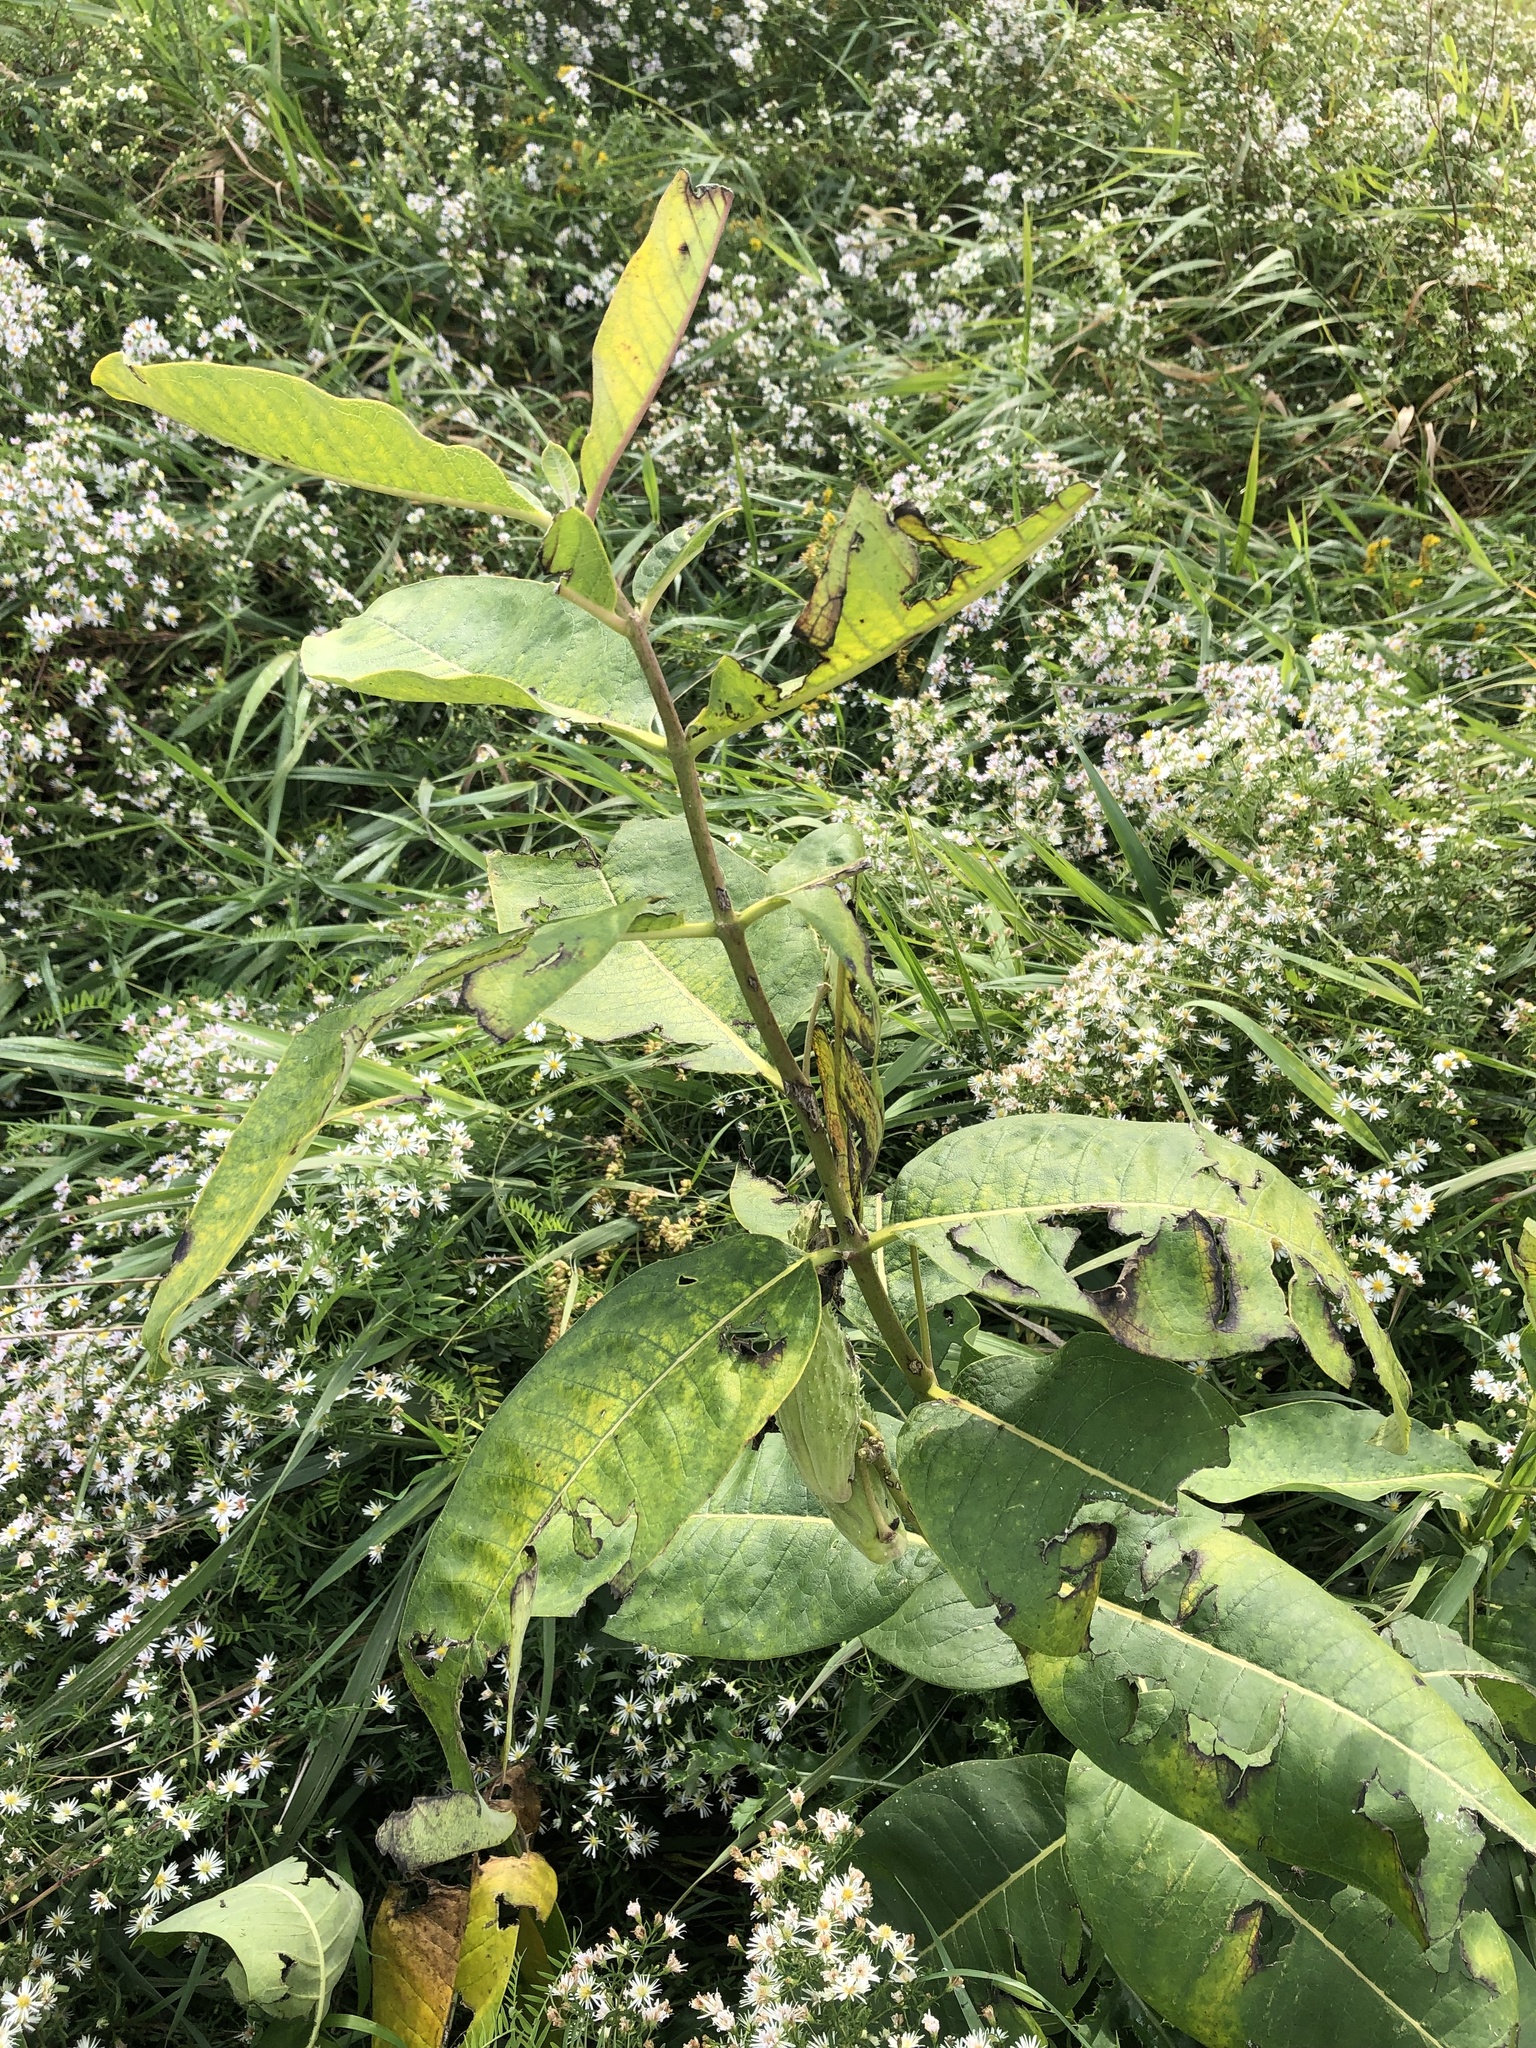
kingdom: Plantae
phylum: Tracheophyta
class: Magnoliopsida
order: Gentianales
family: Apocynaceae
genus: Asclepias
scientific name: Asclepias syriaca
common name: Common milkweed
